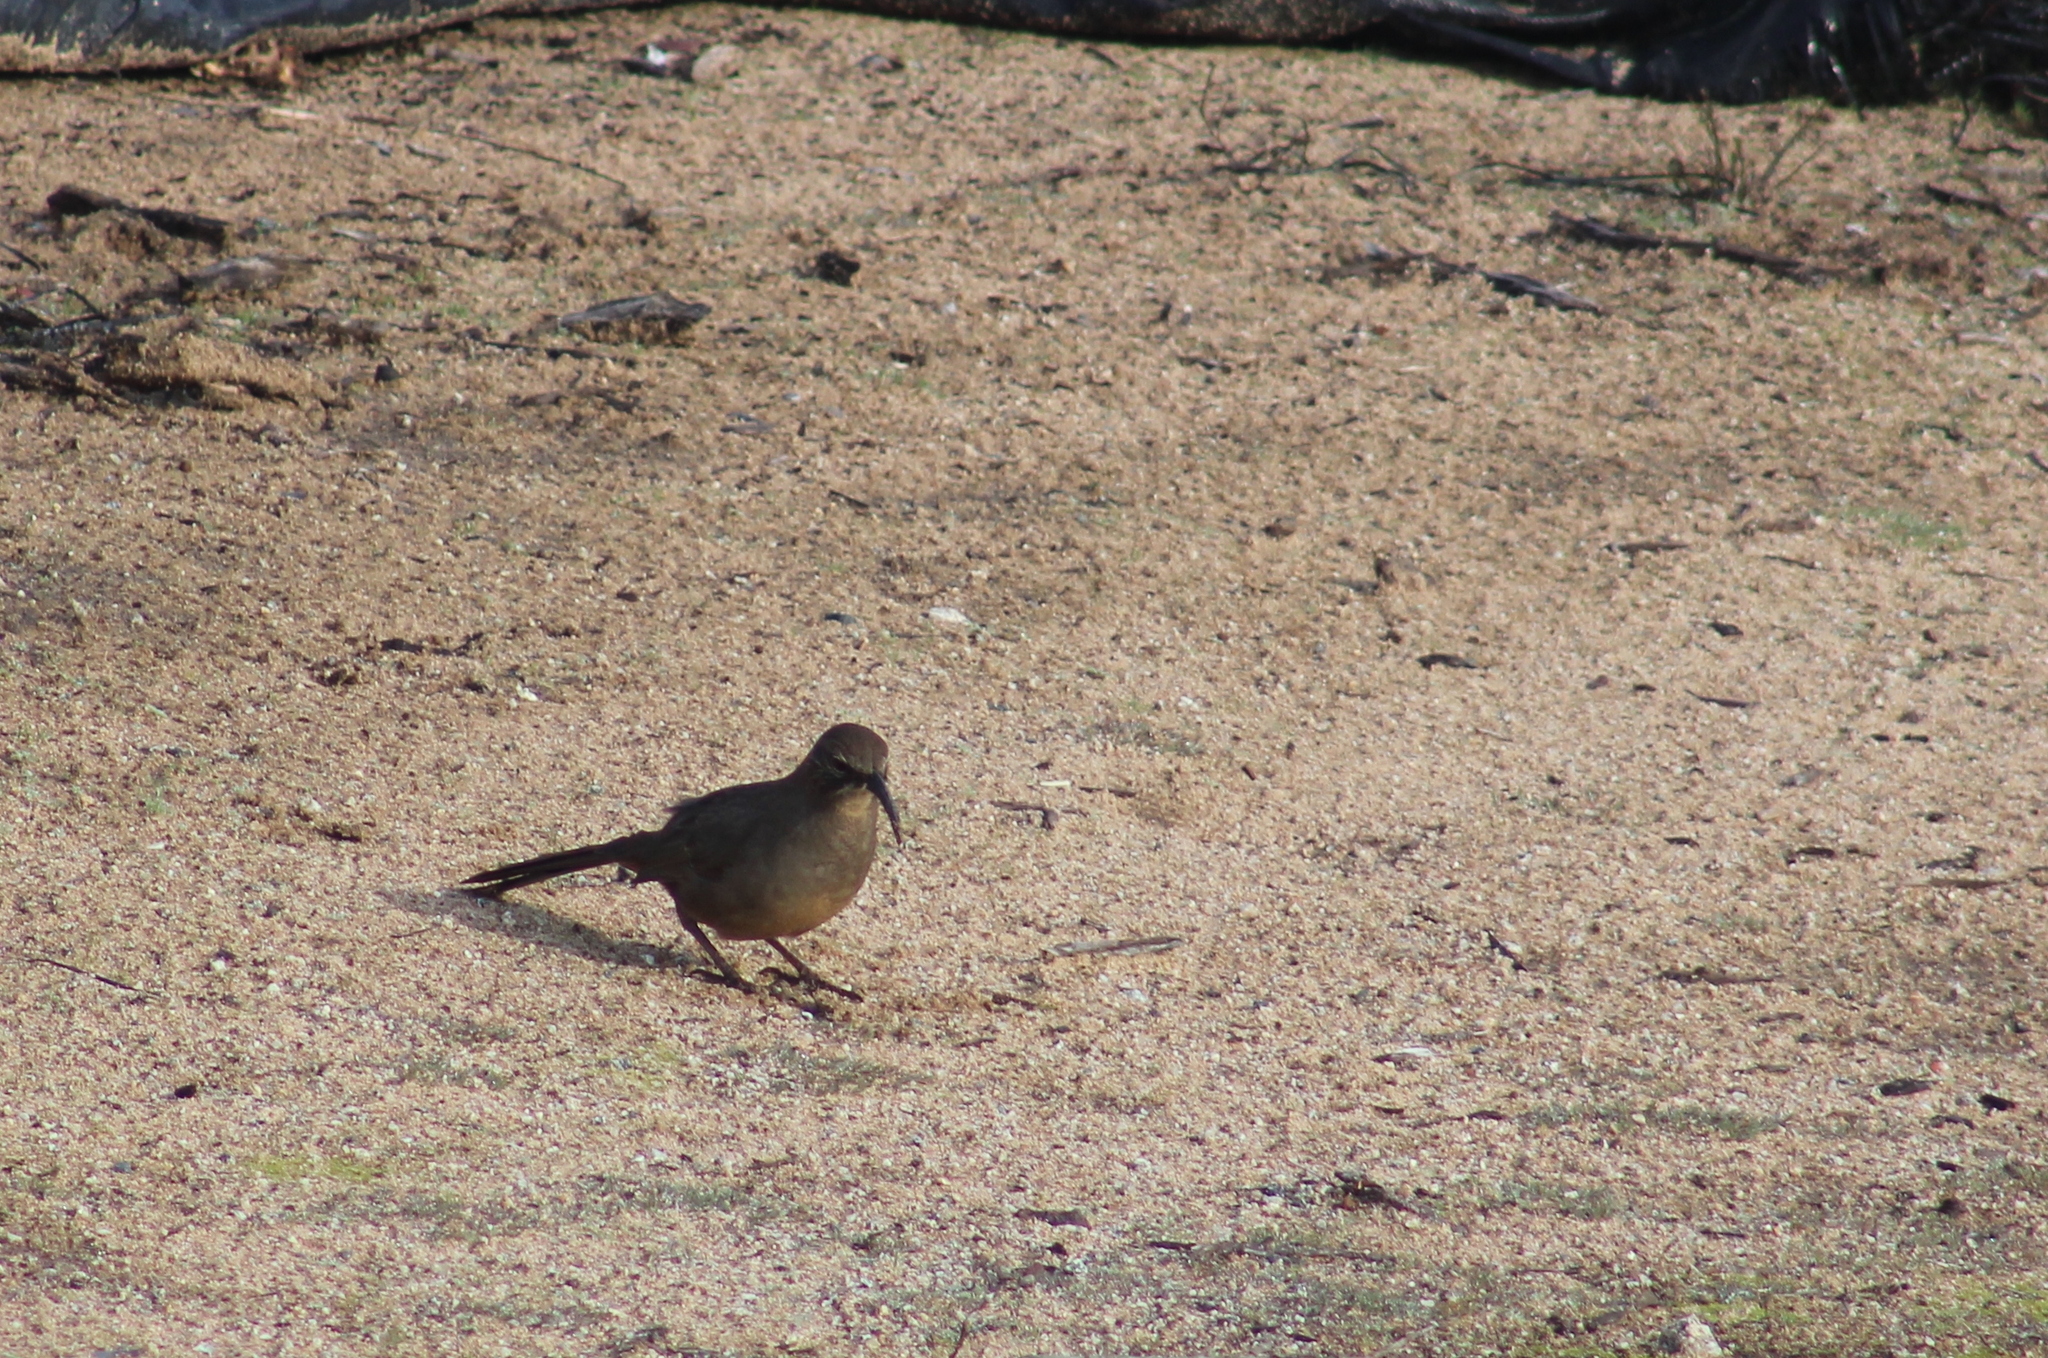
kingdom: Animalia
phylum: Chordata
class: Aves
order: Passeriformes
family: Mimidae
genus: Toxostoma
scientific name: Toxostoma redivivum
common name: California thrasher
